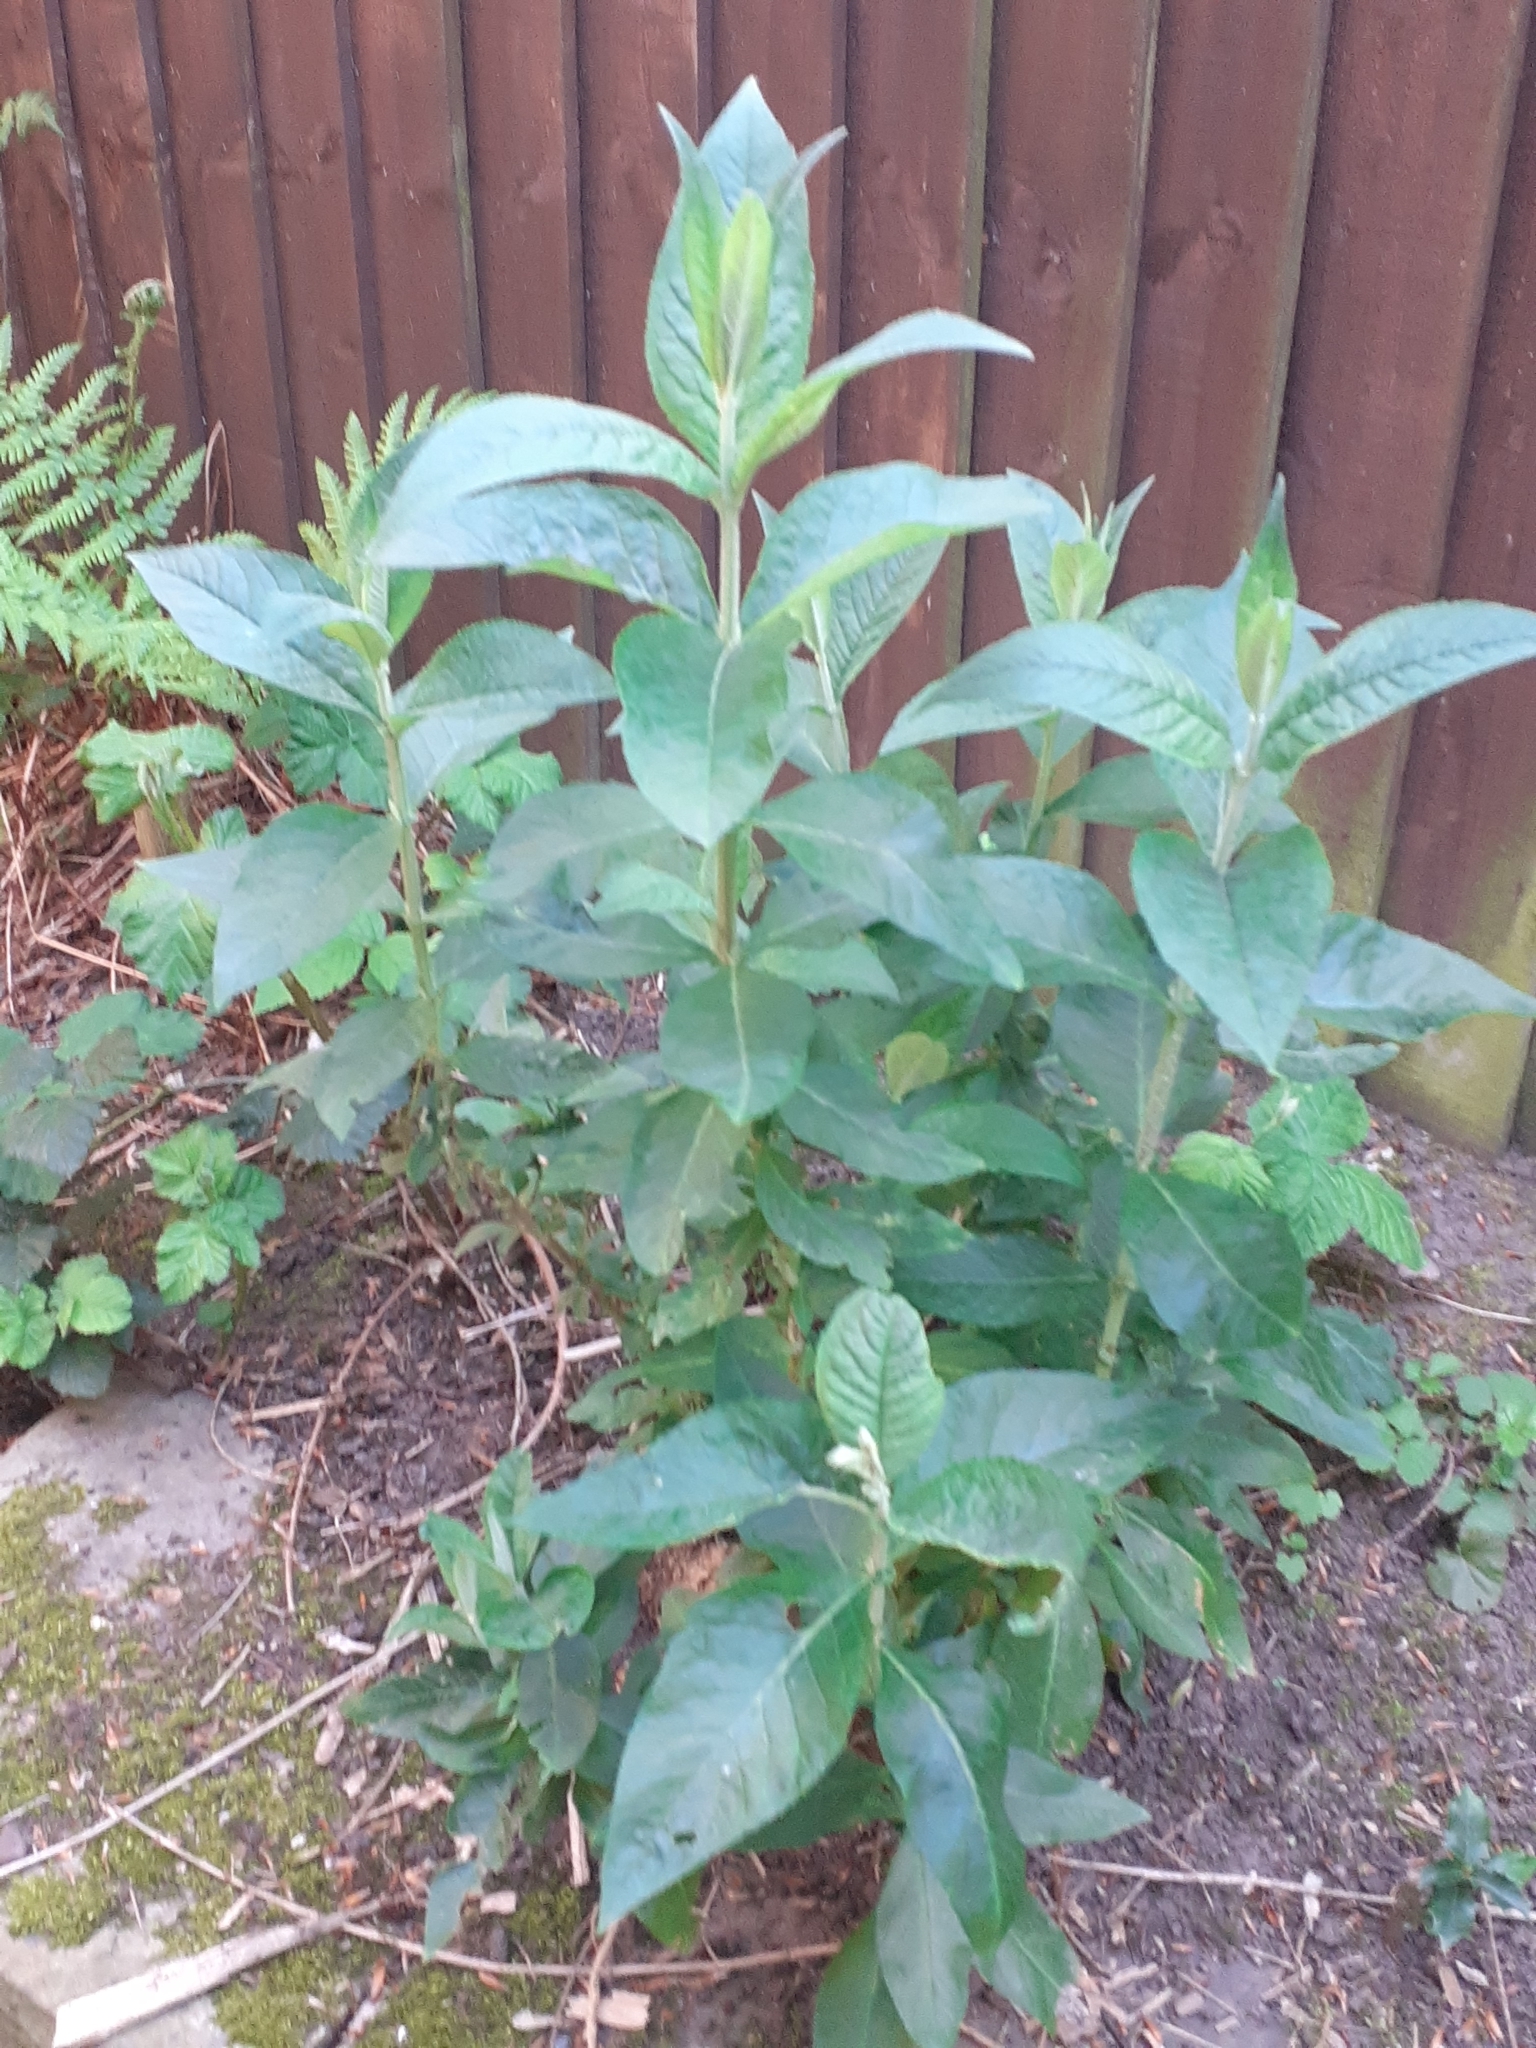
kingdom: Plantae
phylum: Tracheophyta
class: Magnoliopsida
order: Lamiales
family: Scrophulariaceae
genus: Buddleja
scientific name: Buddleja davidii
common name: Butterfly-bush
